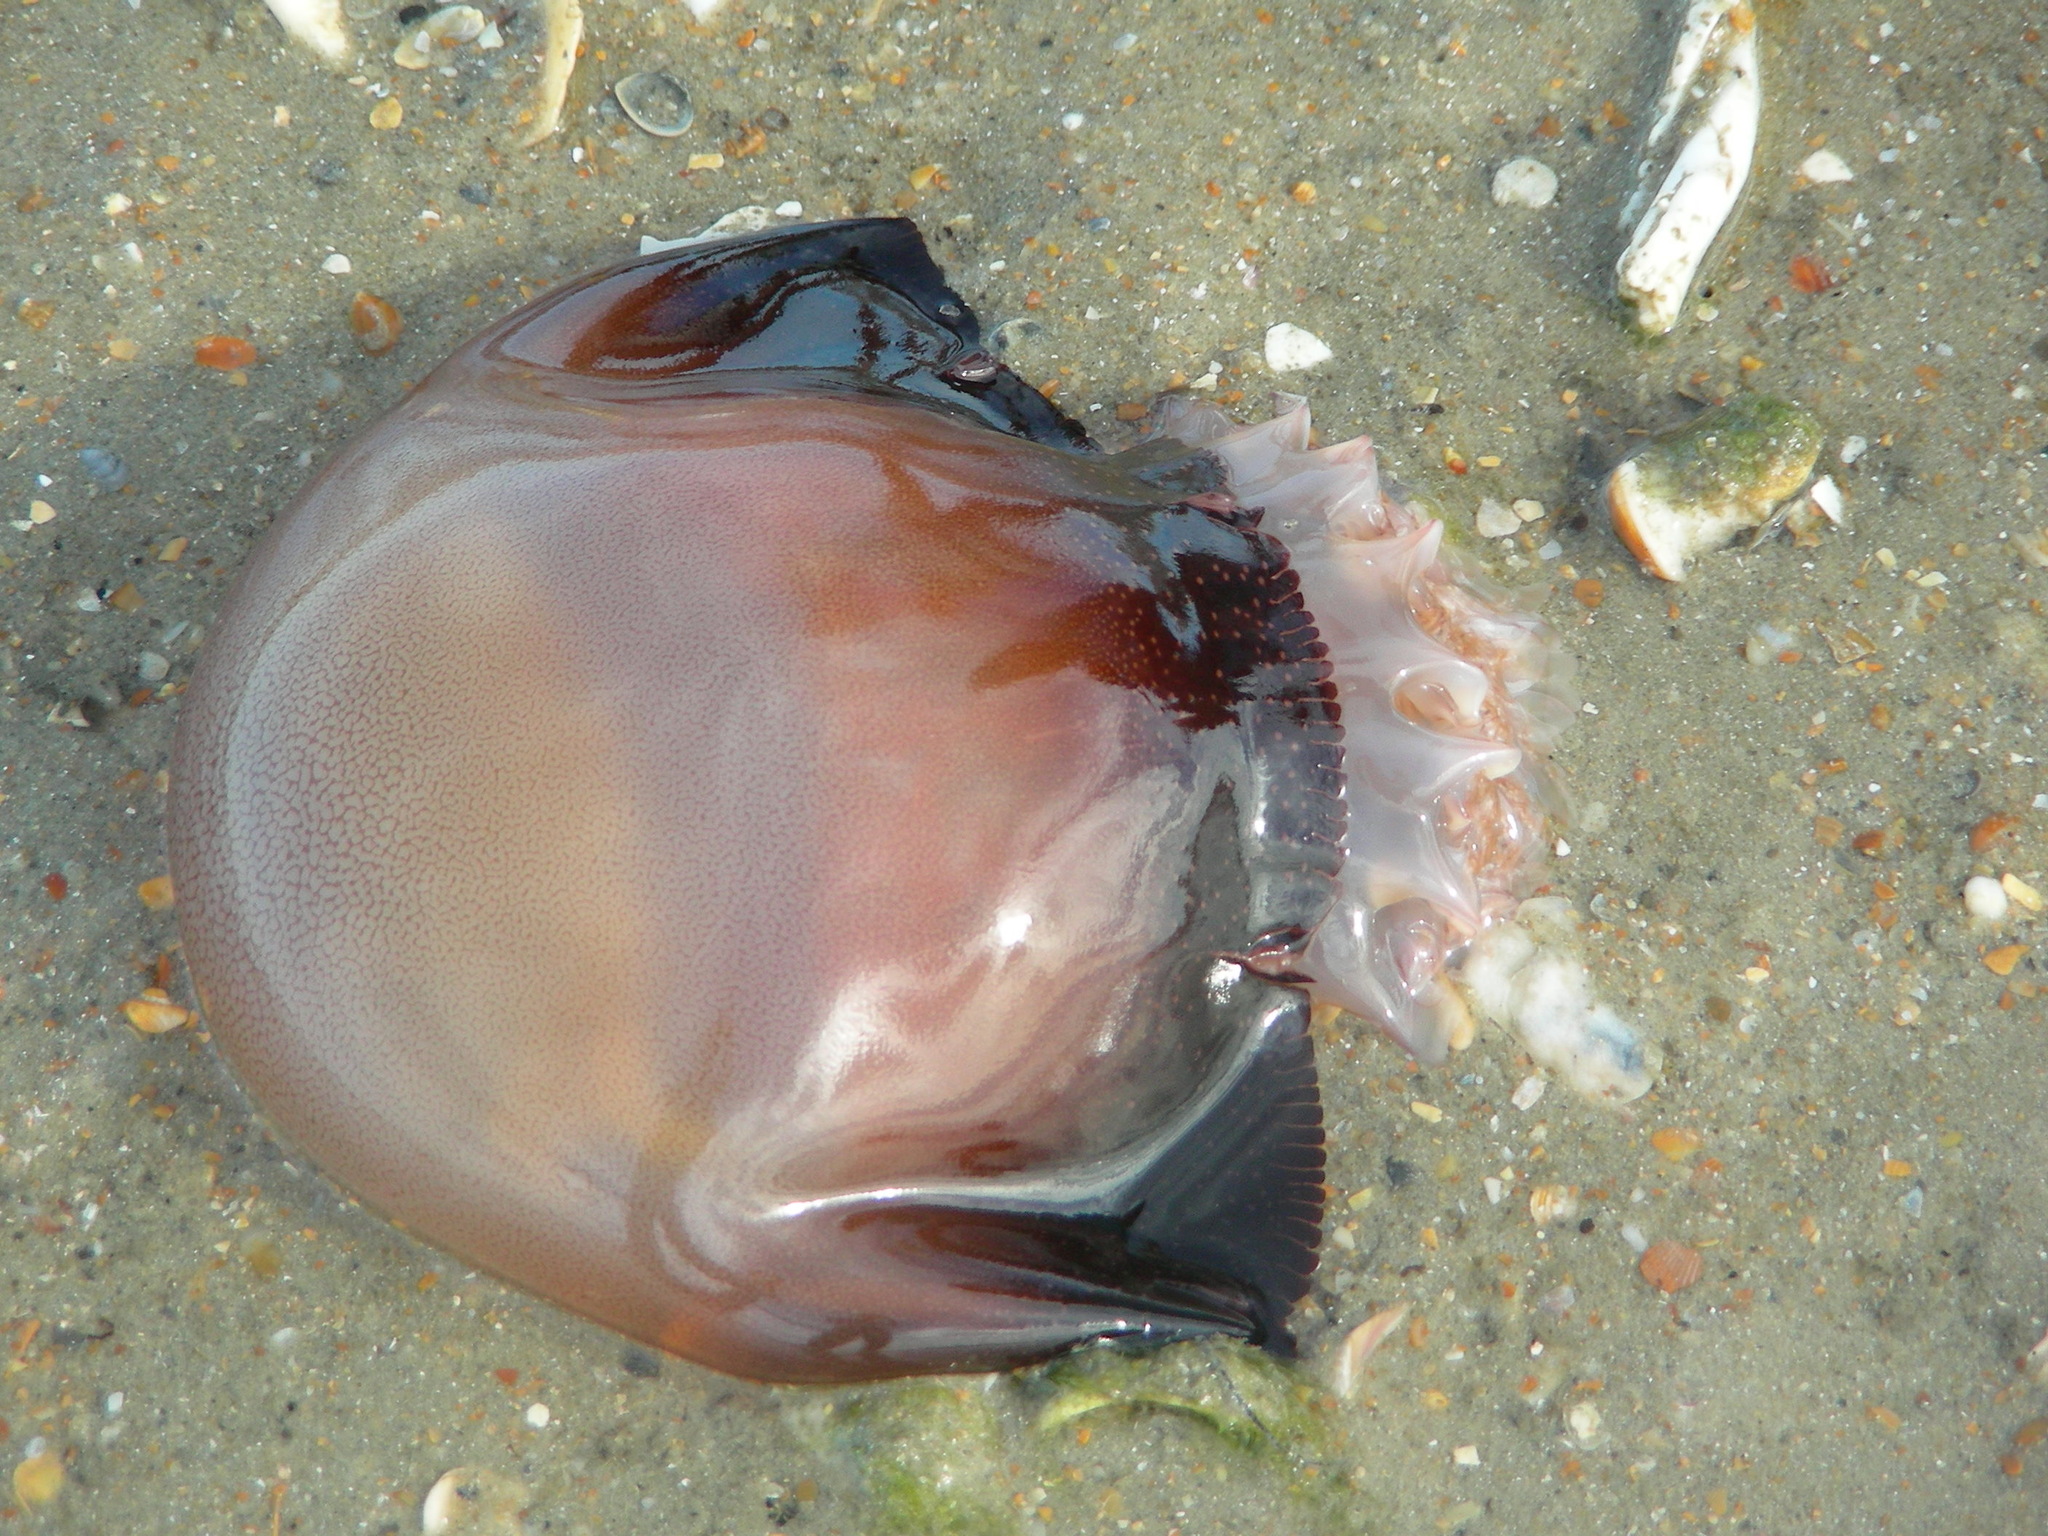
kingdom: Animalia
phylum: Cnidaria
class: Scyphozoa
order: Rhizostomeae
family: Stomolophidae
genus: Stomolophus
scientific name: Stomolophus meleagris
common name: Cabbagehead
